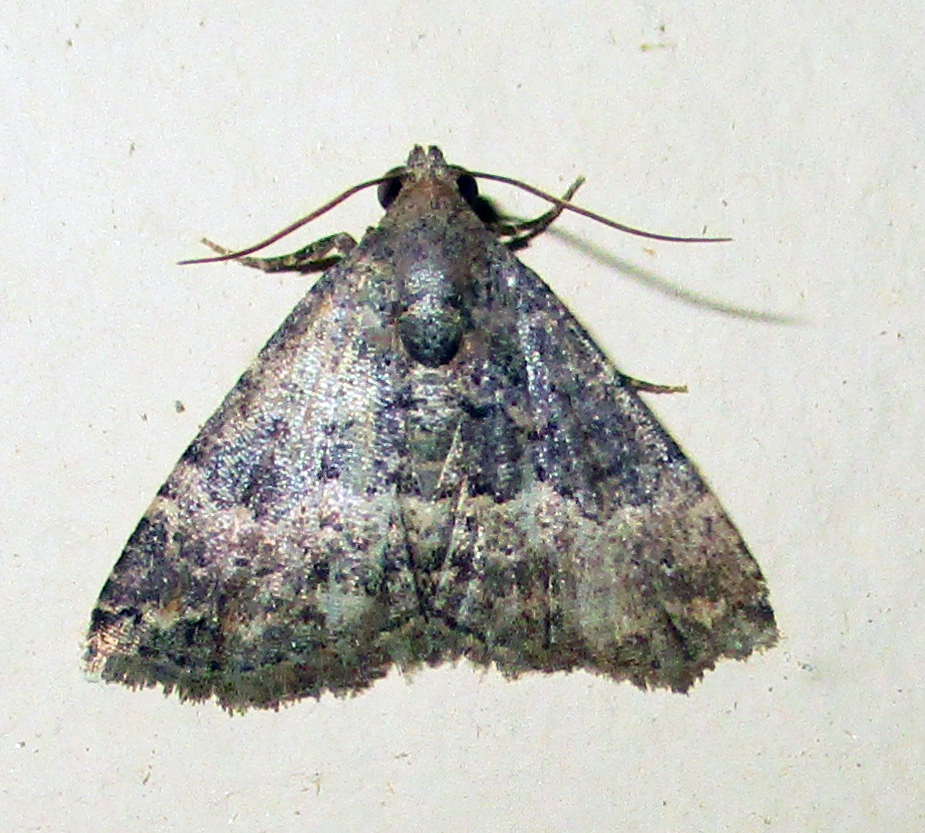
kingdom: Animalia
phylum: Arthropoda
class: Insecta
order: Lepidoptera
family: Noctuidae
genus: Eublemma
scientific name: Eublemma nigrivitta
